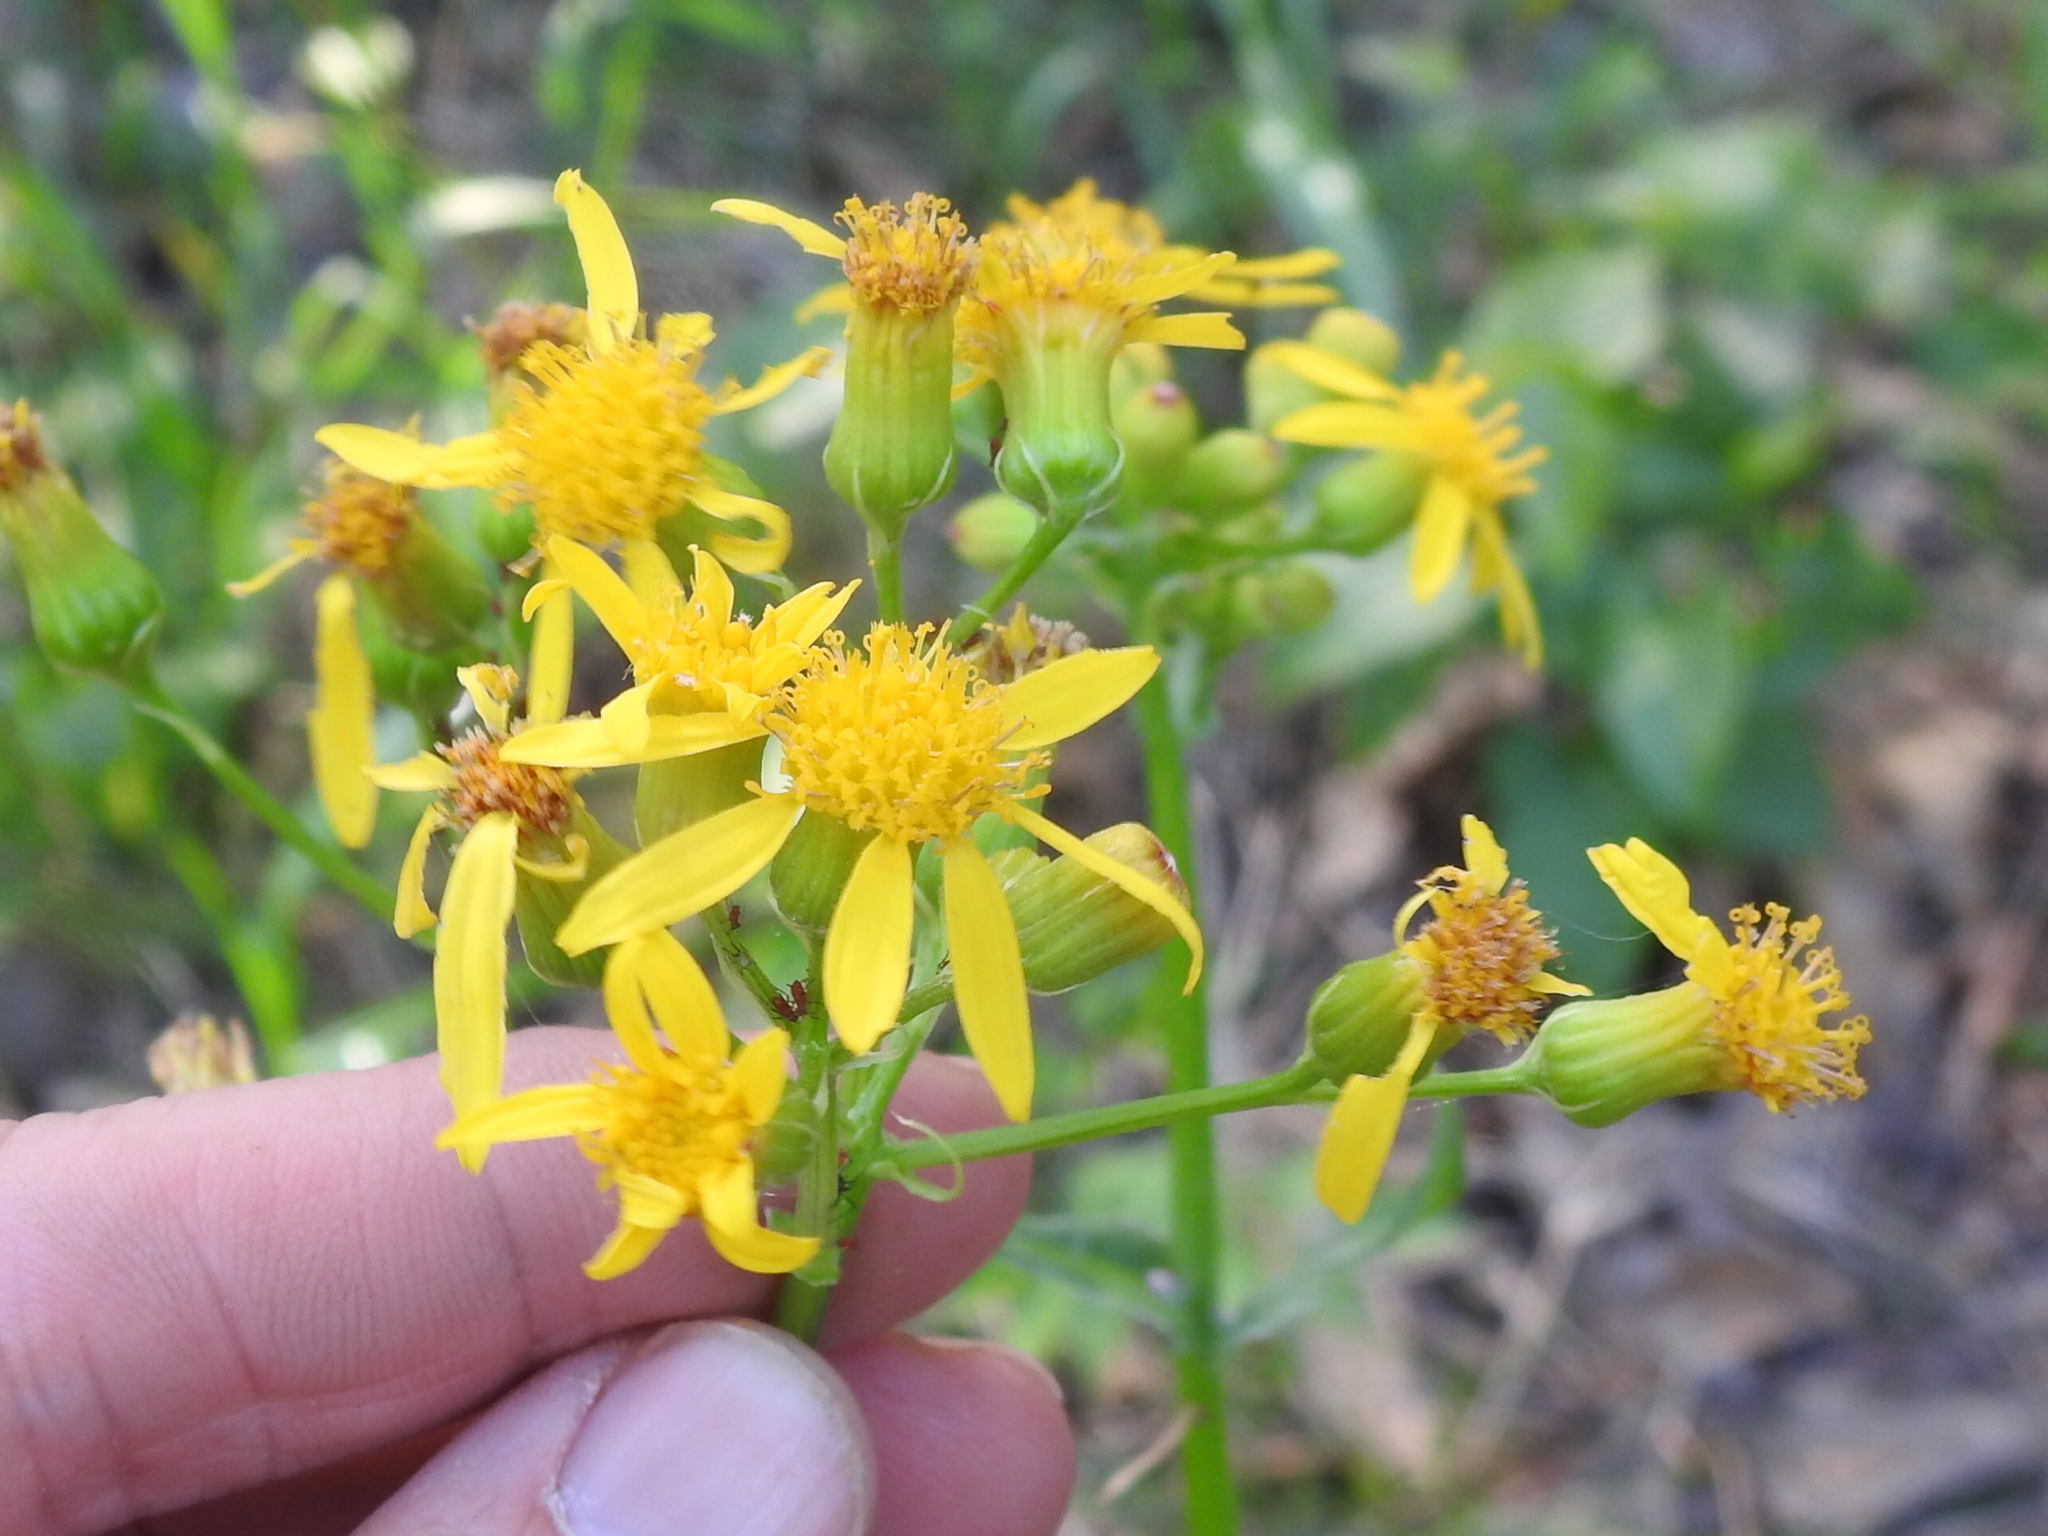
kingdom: Plantae
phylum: Tracheophyta
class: Magnoliopsida
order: Asterales
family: Asteraceae
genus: Senecio
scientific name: Senecio ampullaceus
